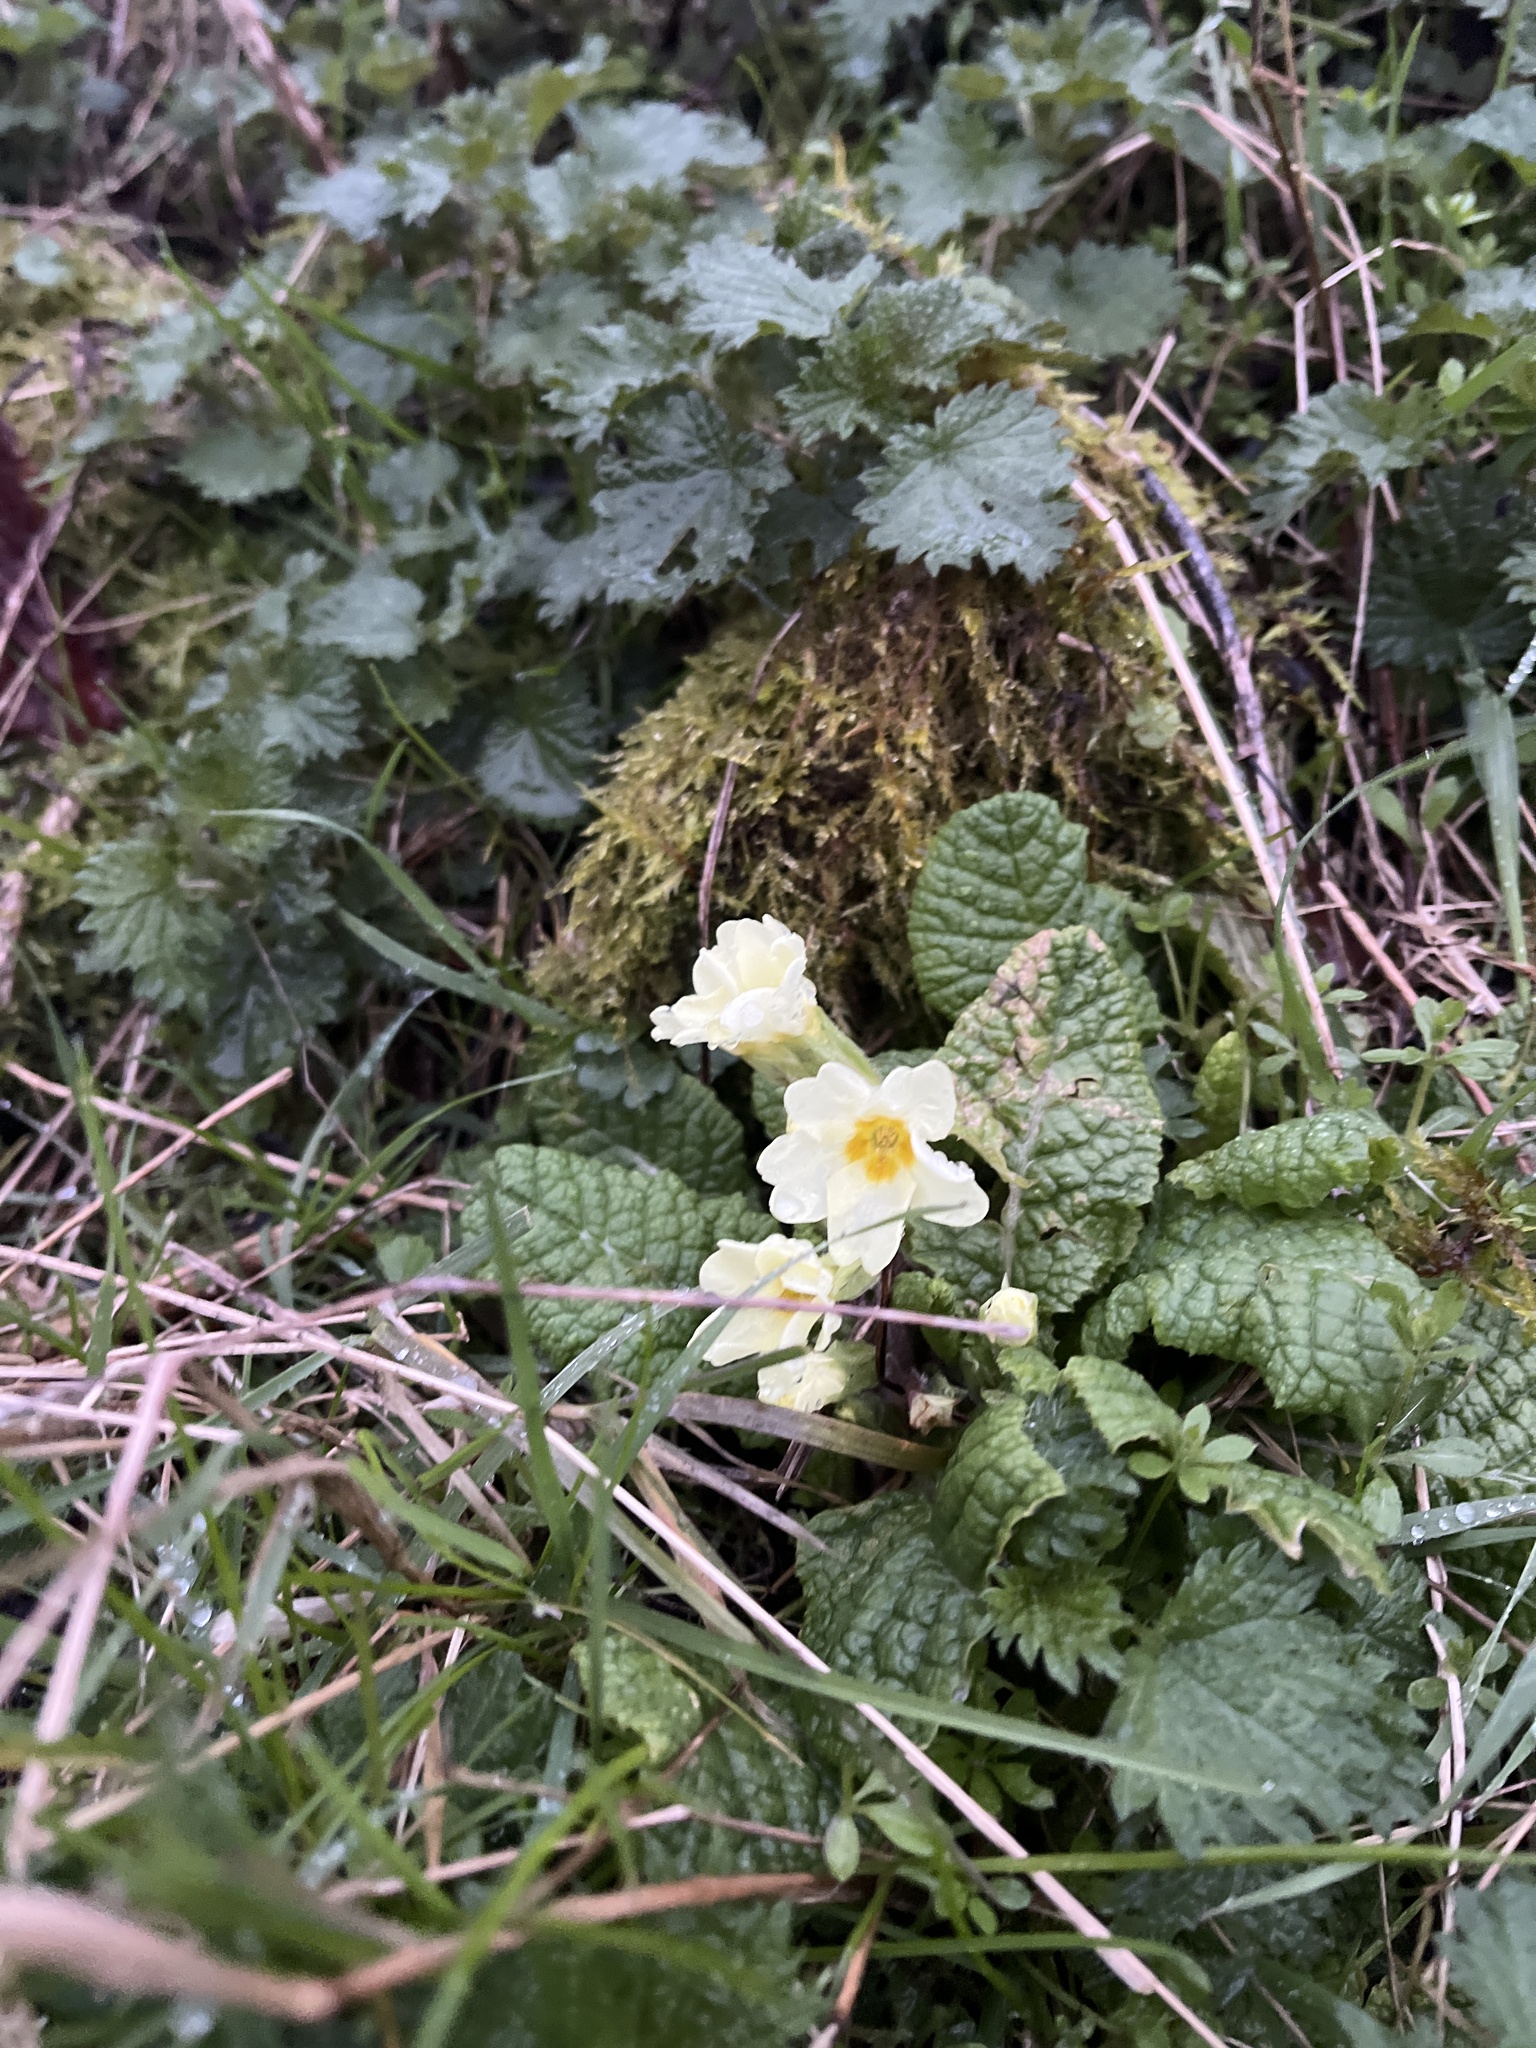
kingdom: Plantae
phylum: Tracheophyta
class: Magnoliopsida
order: Ericales
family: Primulaceae
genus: Primula
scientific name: Primula vulgaris
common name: Primrose
